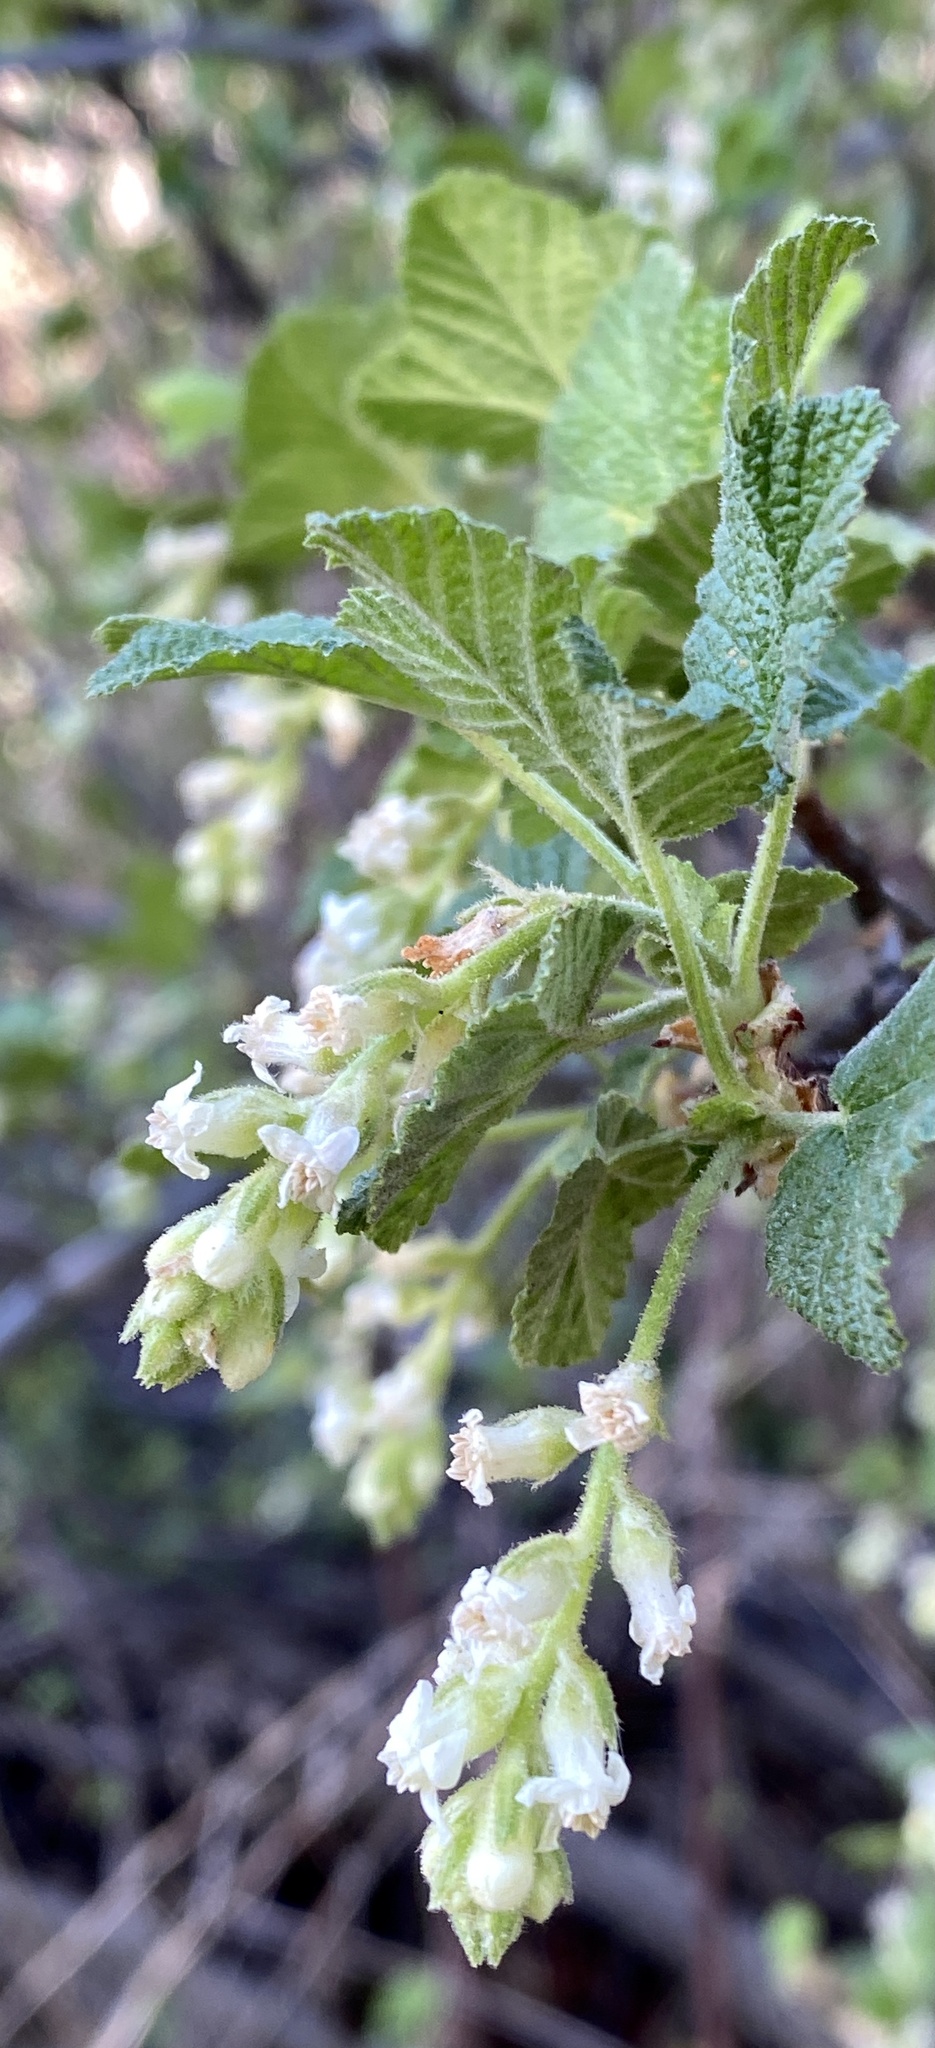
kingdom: Plantae
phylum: Tracheophyta
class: Magnoliopsida
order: Saxifragales
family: Grossulariaceae
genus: Ribes
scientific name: Ribes indecorum
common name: White-flower currant
